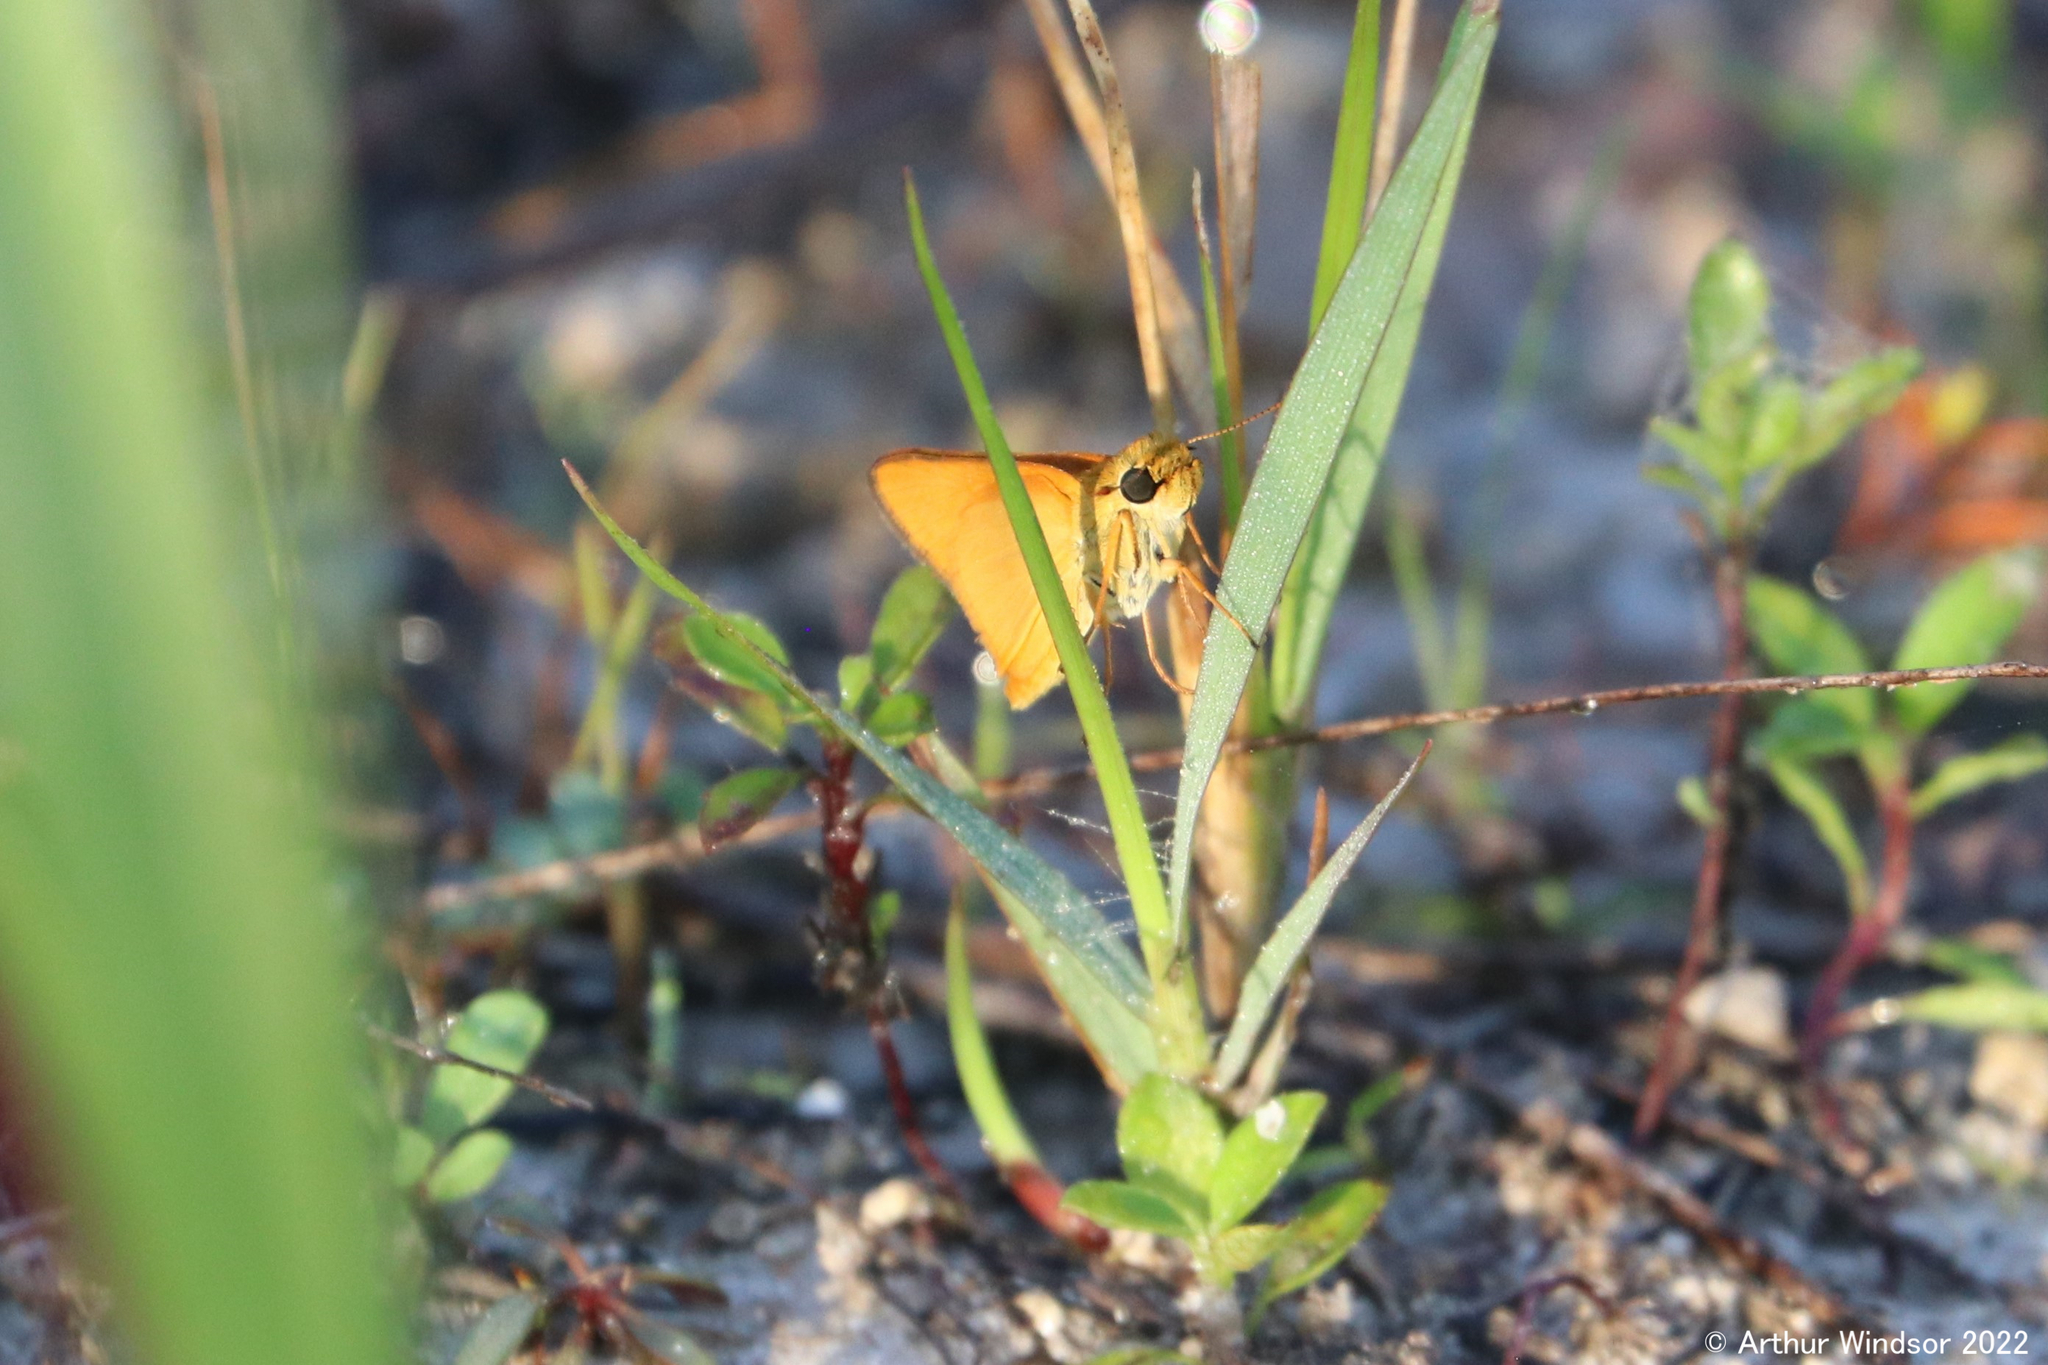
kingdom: Animalia
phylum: Arthropoda
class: Insecta
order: Lepidoptera
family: Hesperiidae
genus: Atrytone
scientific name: Atrytone delaware
